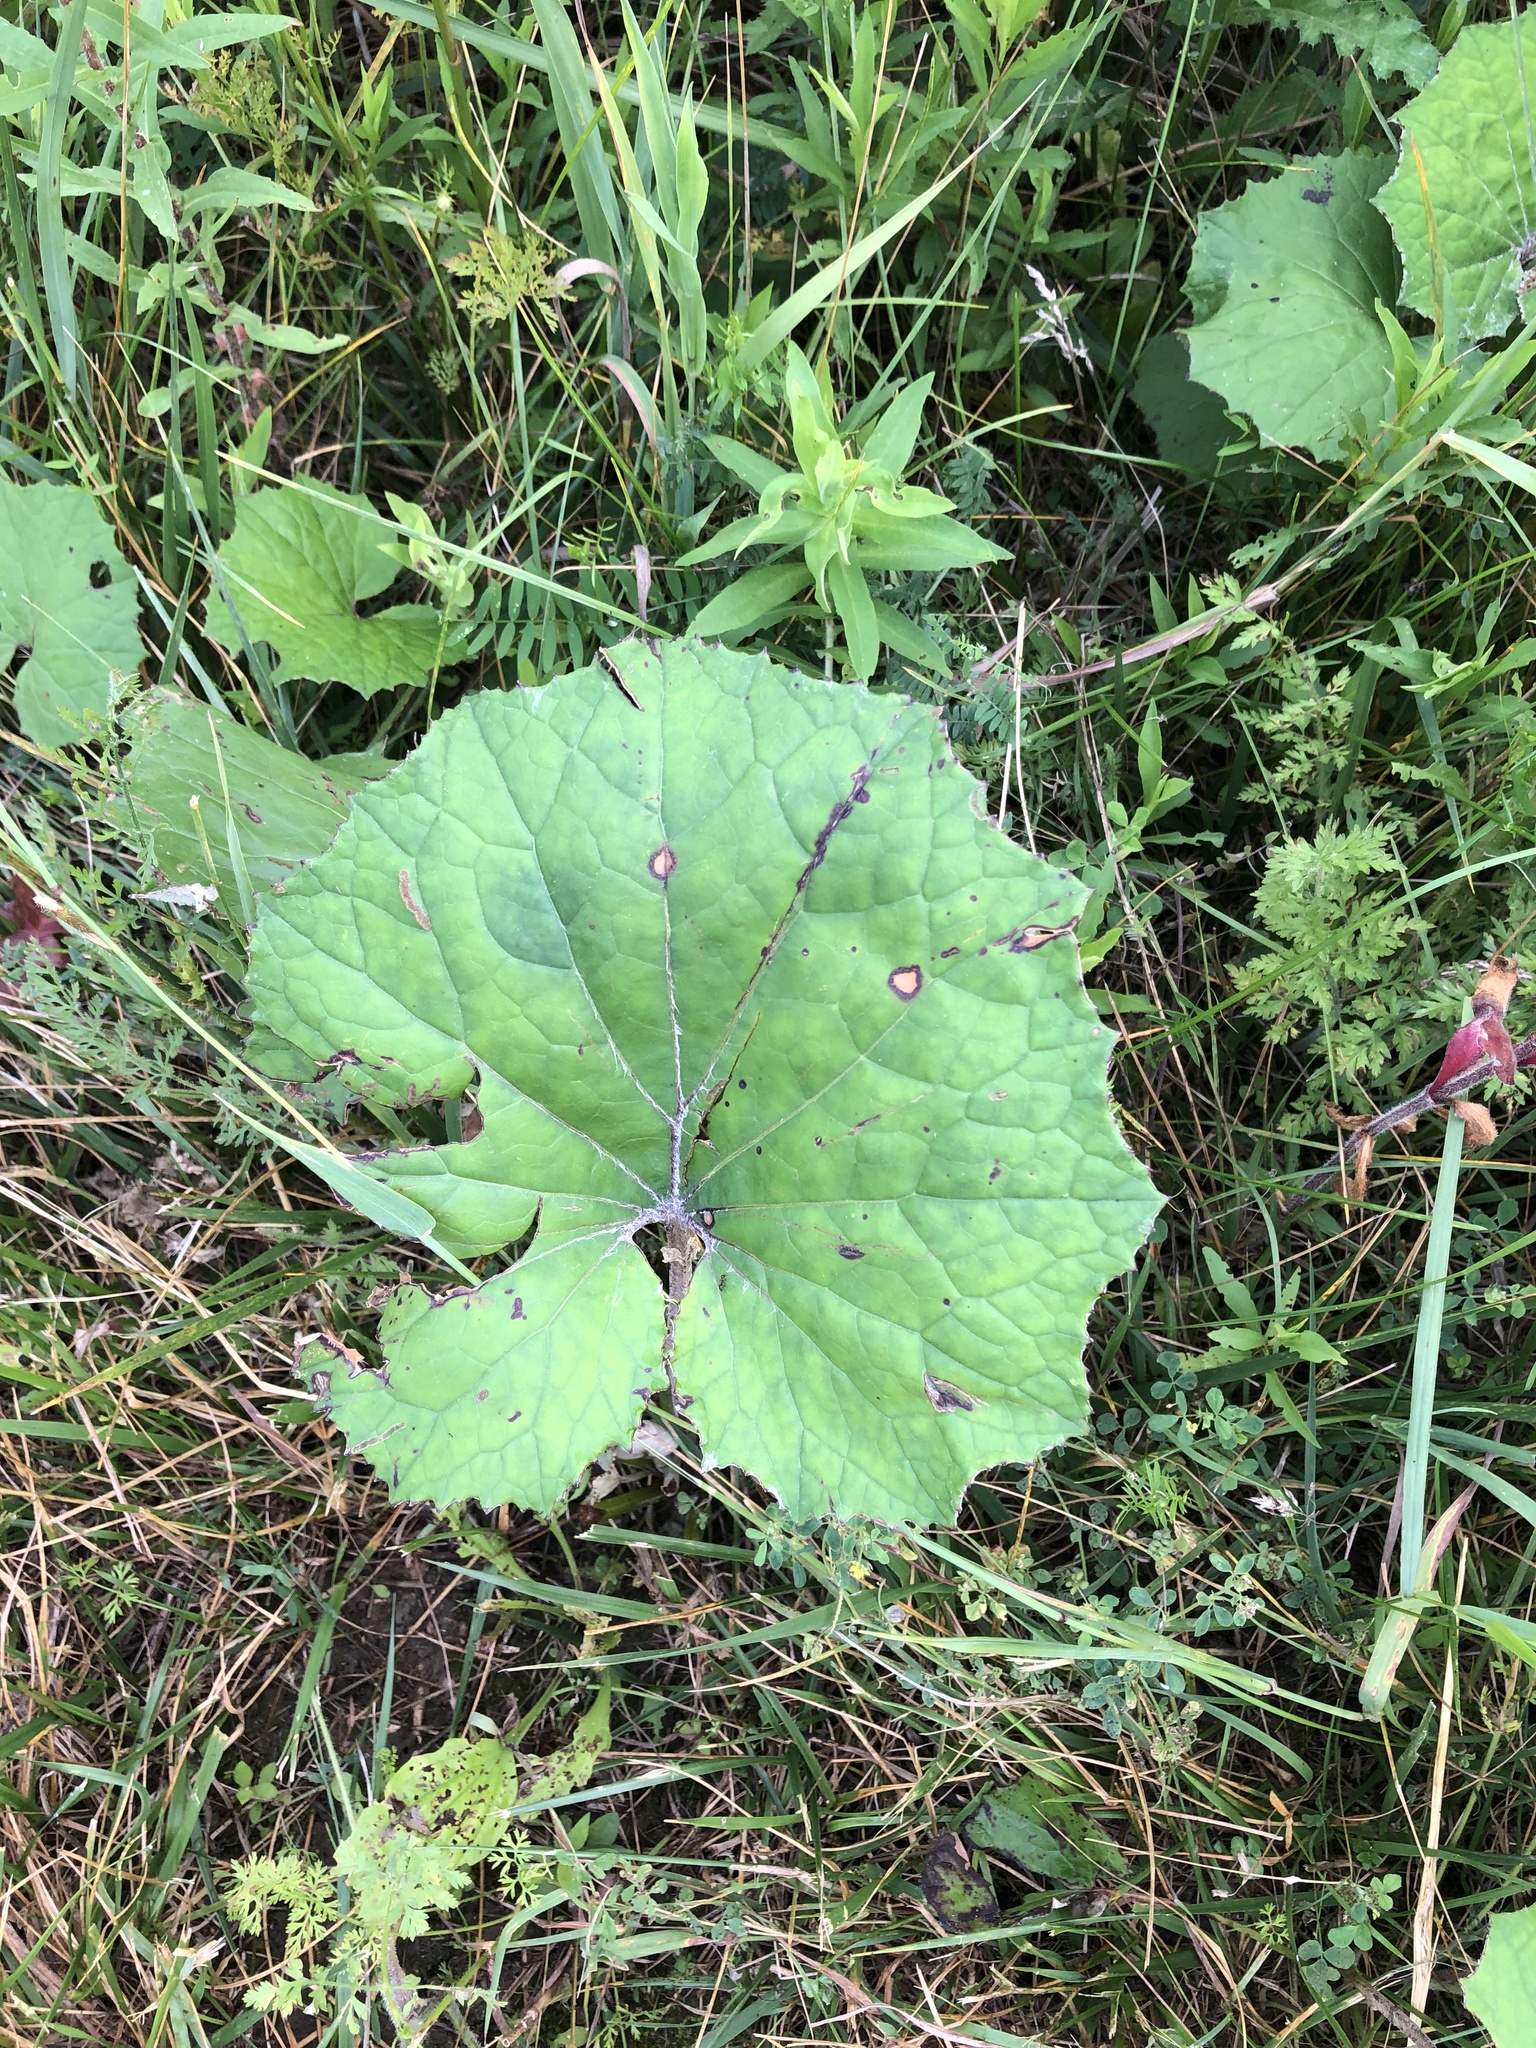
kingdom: Plantae
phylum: Tracheophyta
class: Magnoliopsida
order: Asterales
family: Asteraceae
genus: Tussilago
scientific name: Tussilago farfara
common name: Coltsfoot
